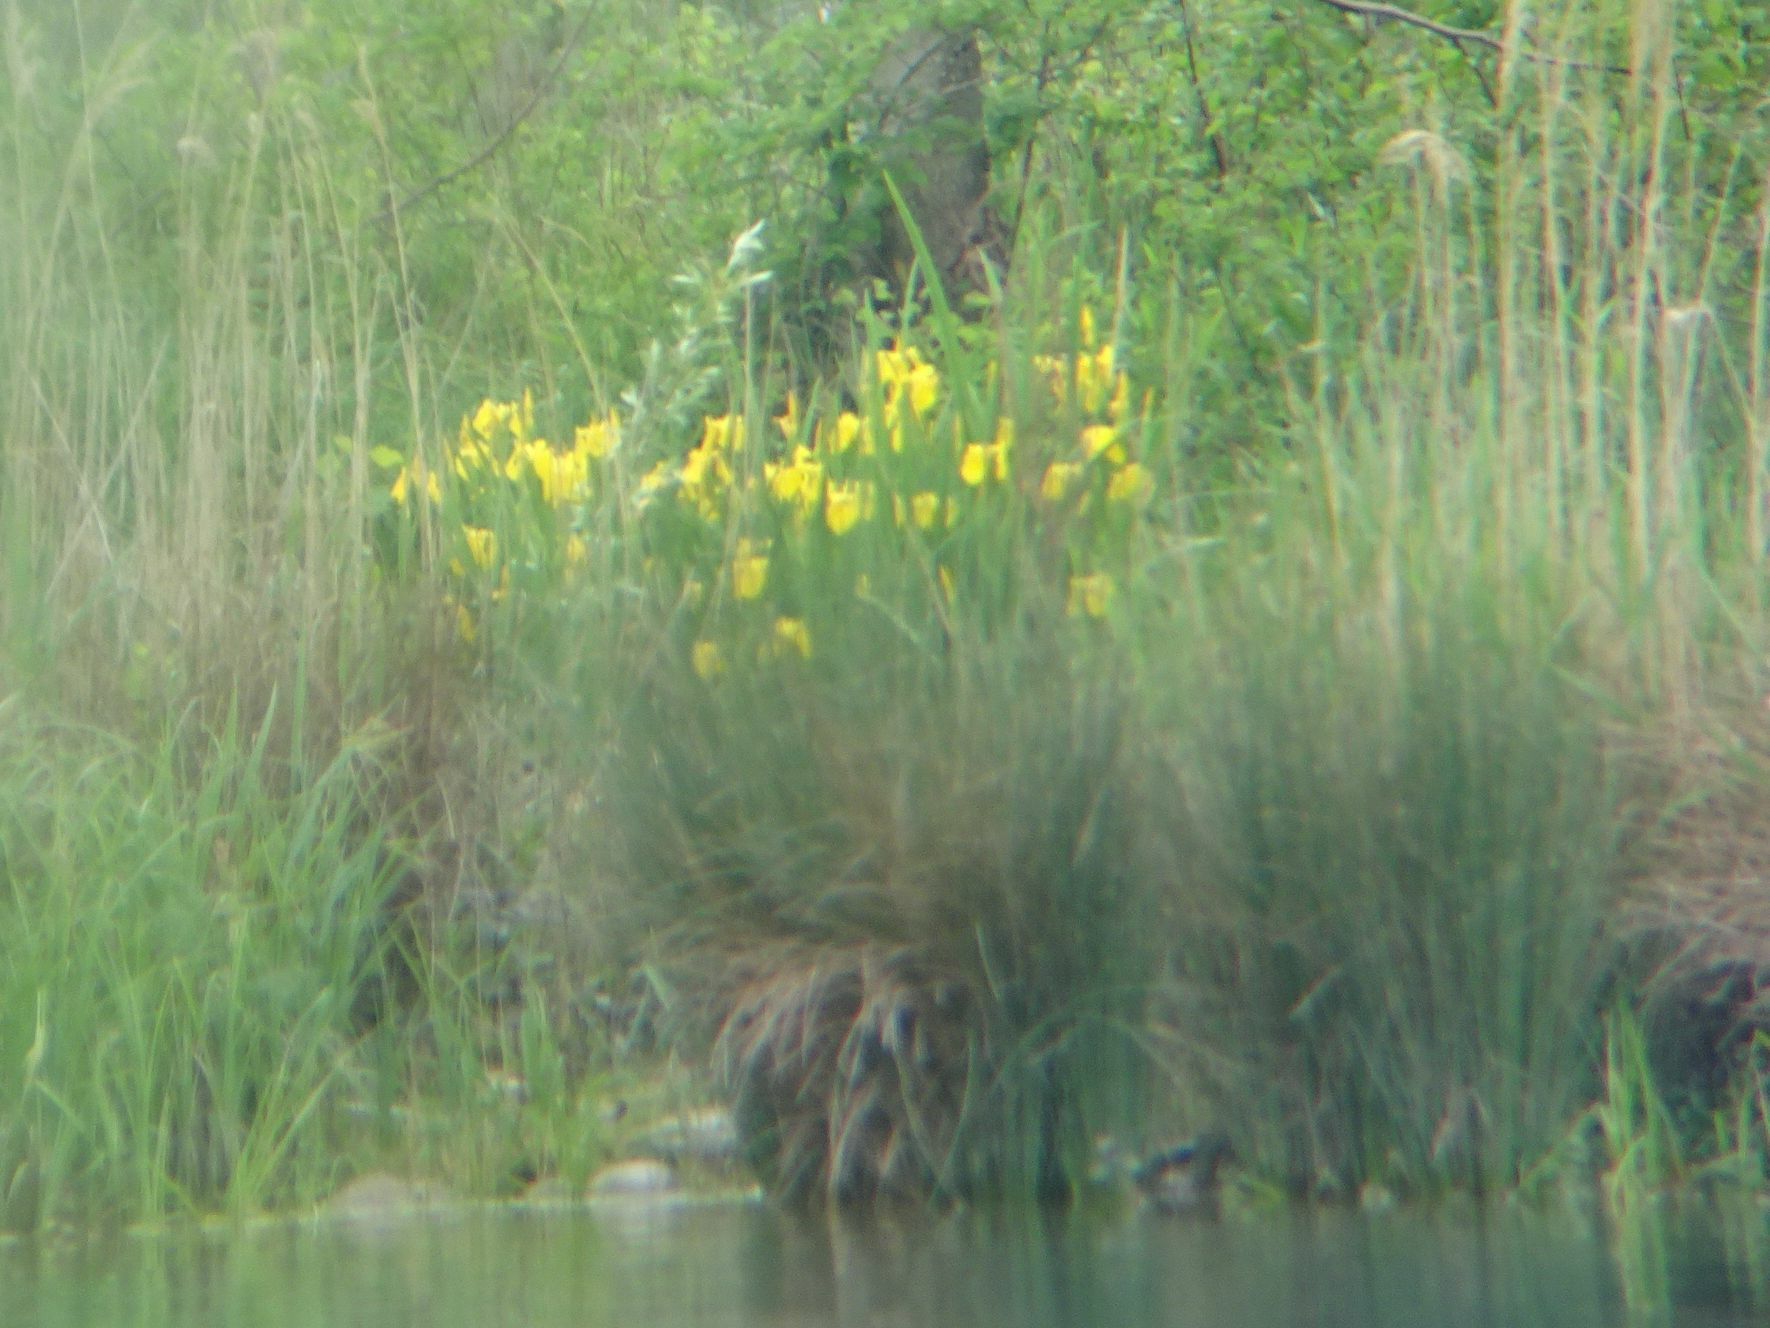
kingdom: Plantae
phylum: Tracheophyta
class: Liliopsida
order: Asparagales
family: Iridaceae
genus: Iris
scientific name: Iris pseudacorus
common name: Yellow flag
